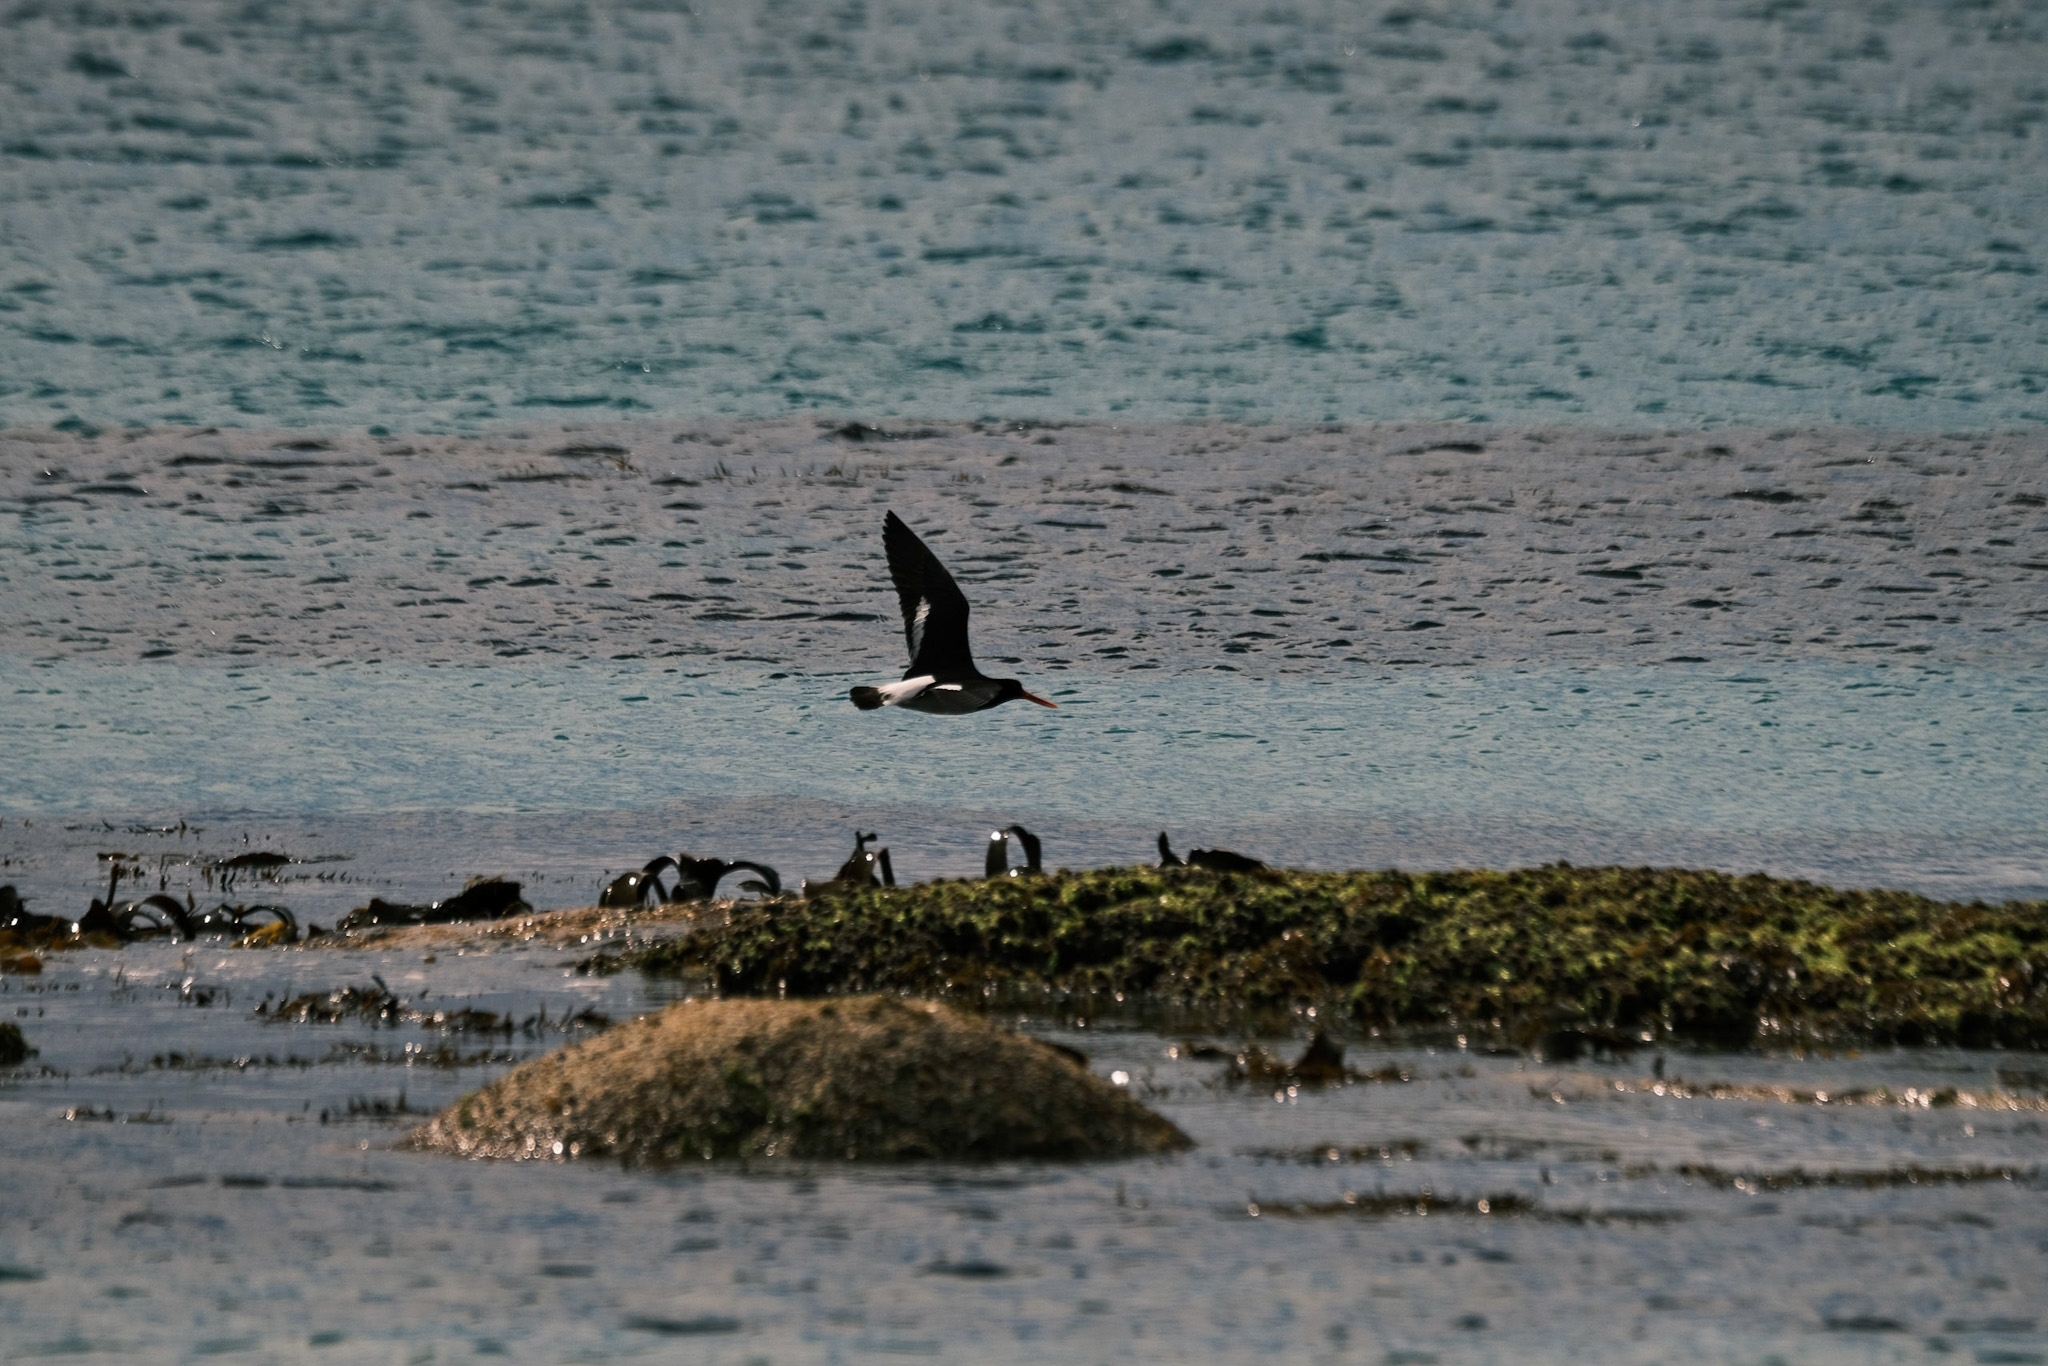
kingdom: Animalia
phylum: Chordata
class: Aves
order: Charadriiformes
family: Haematopodidae
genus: Haematopus
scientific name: Haematopus longirostris
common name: Pied oystercatcher
